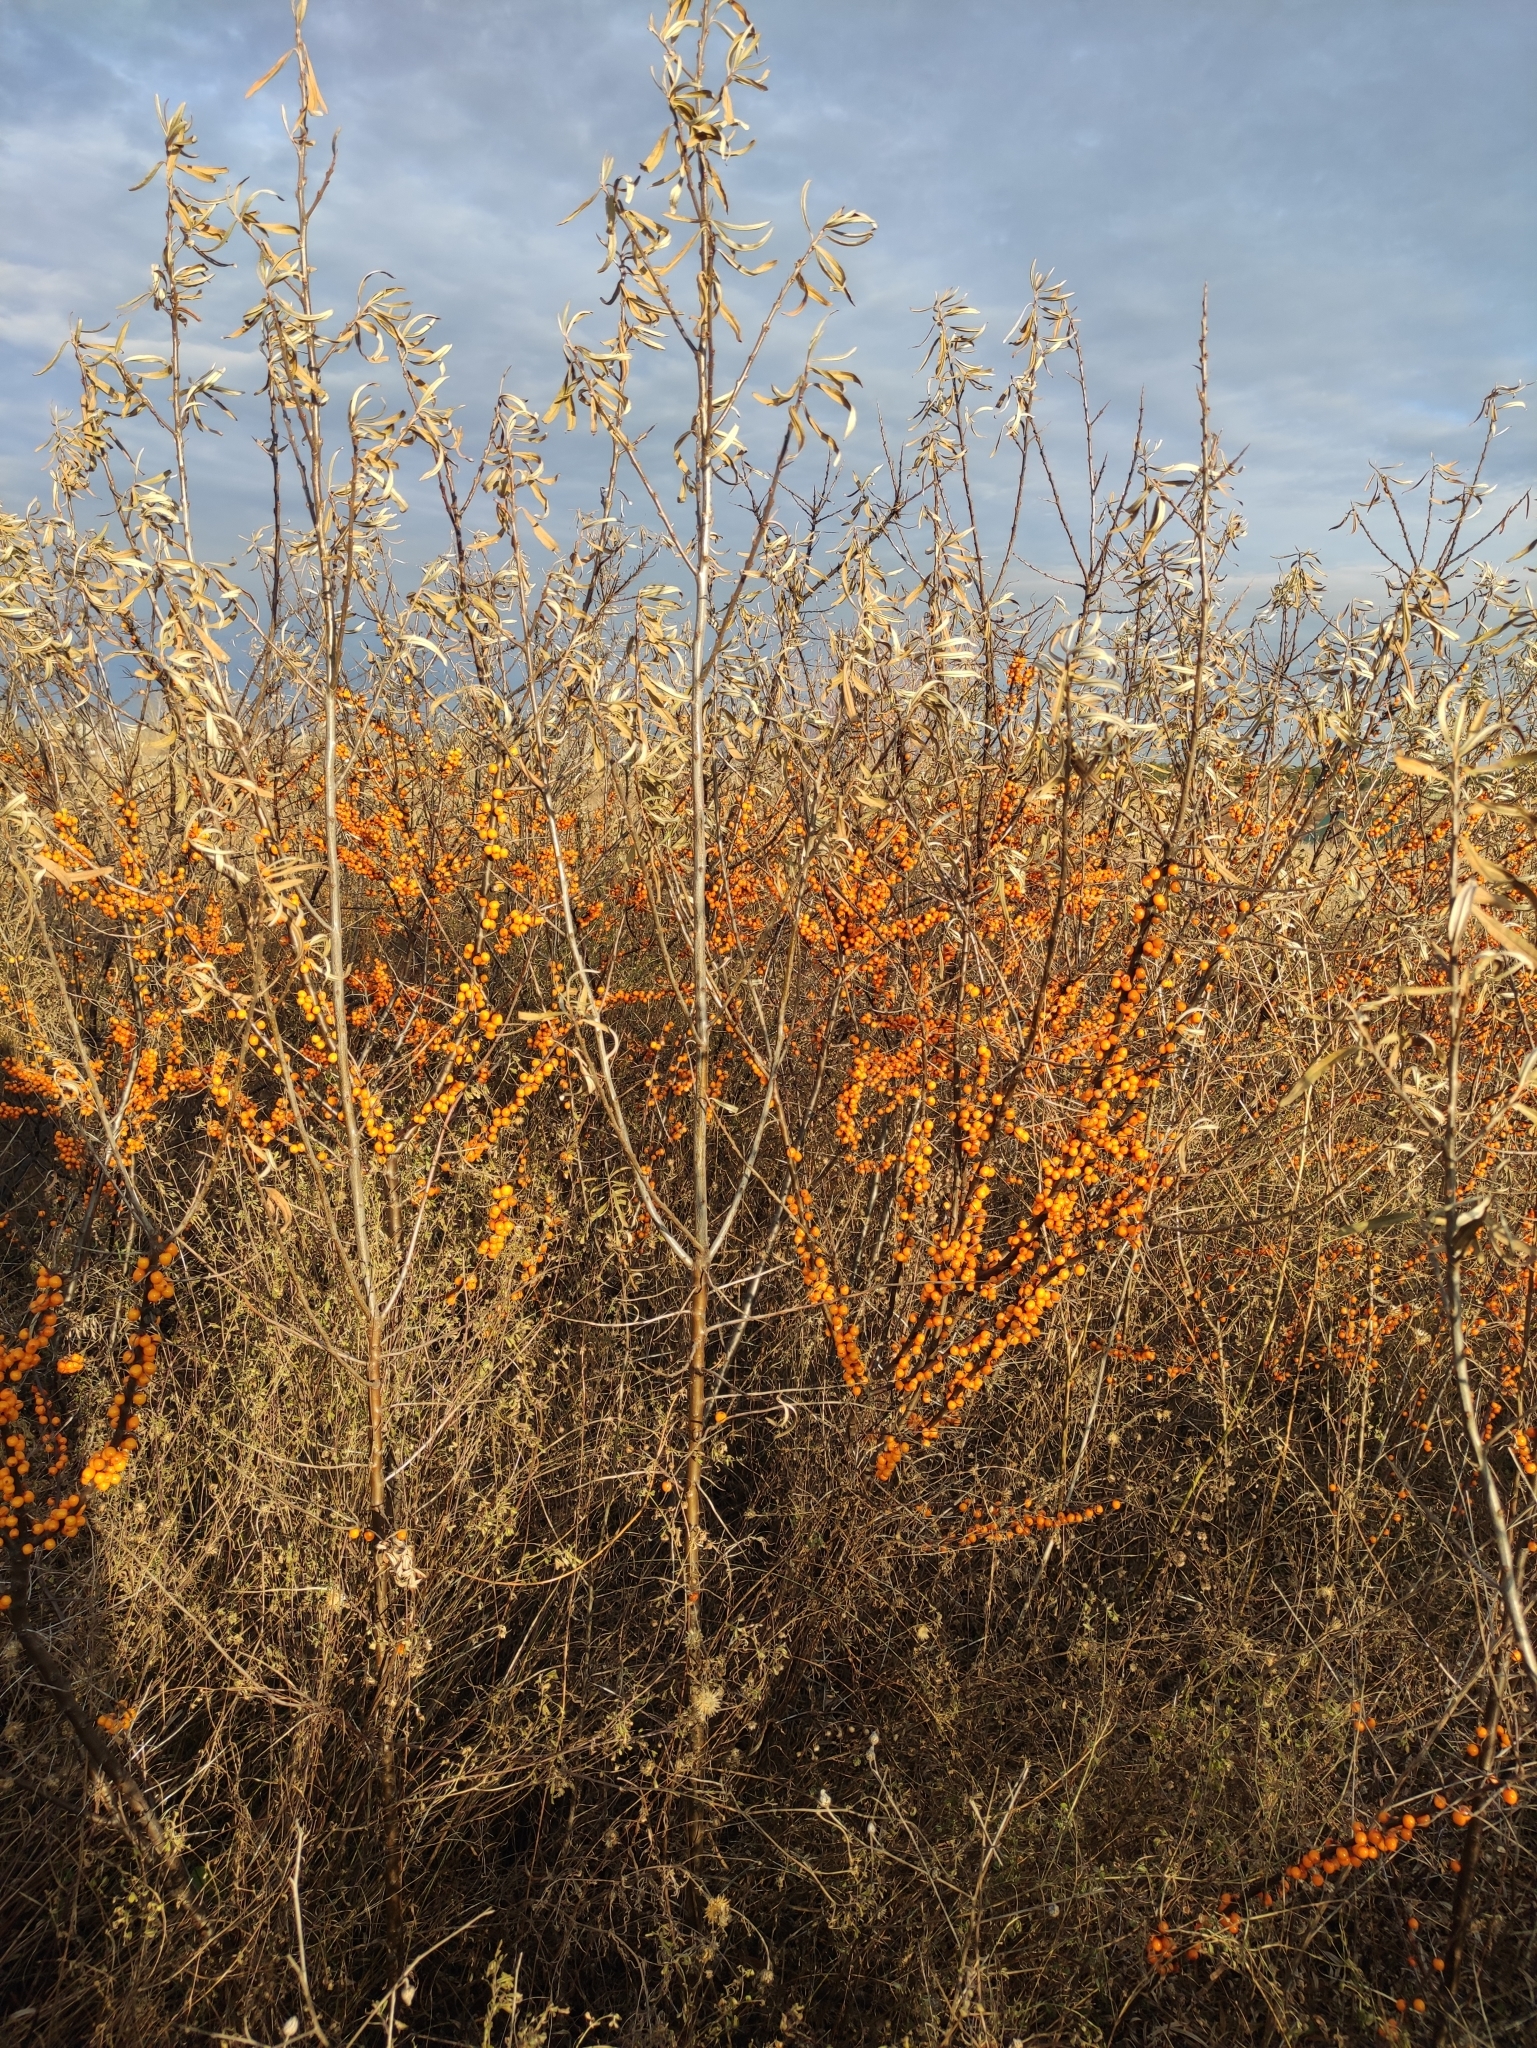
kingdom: Plantae
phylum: Tracheophyta
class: Magnoliopsida
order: Rosales
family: Elaeagnaceae
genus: Hippophae
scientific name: Hippophae rhamnoides
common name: Sea-buckthorn
